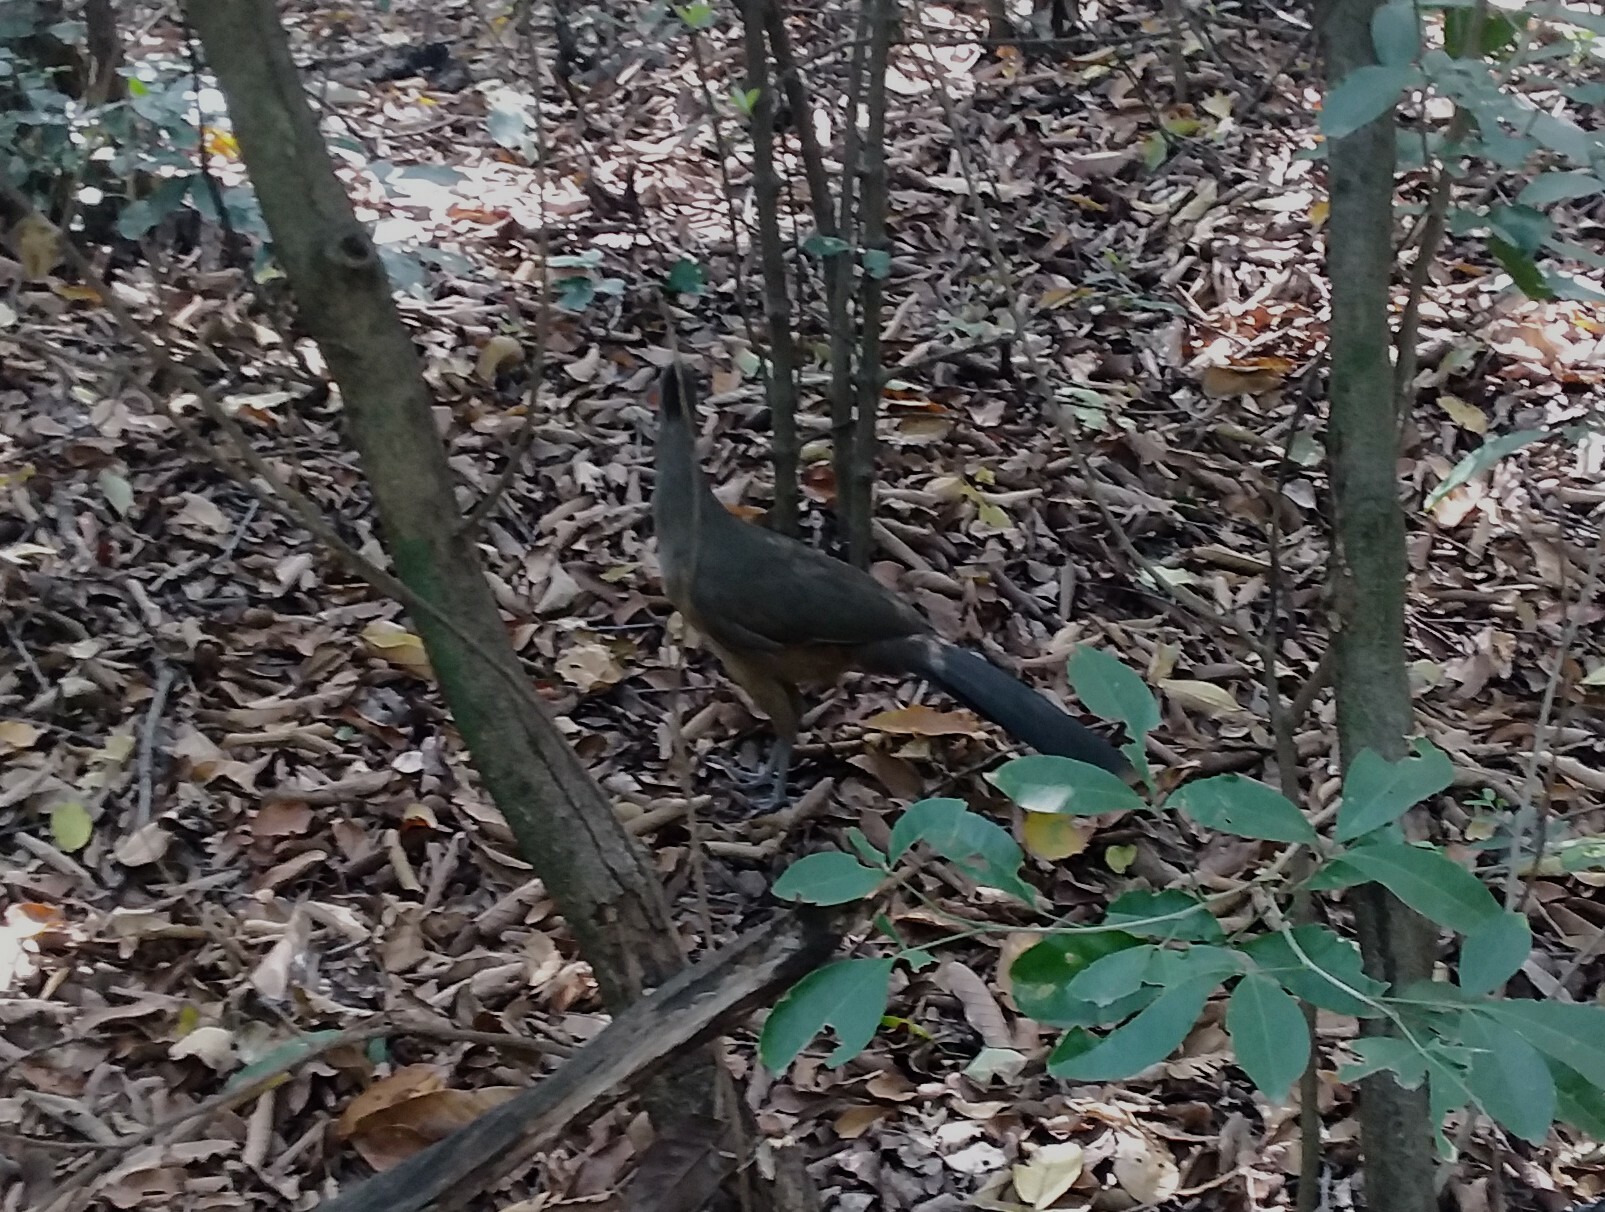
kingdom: Animalia
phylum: Chordata
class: Aves
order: Galliformes
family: Cracidae
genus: Ortalis
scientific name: Ortalis vetula
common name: Plain chachalaca
